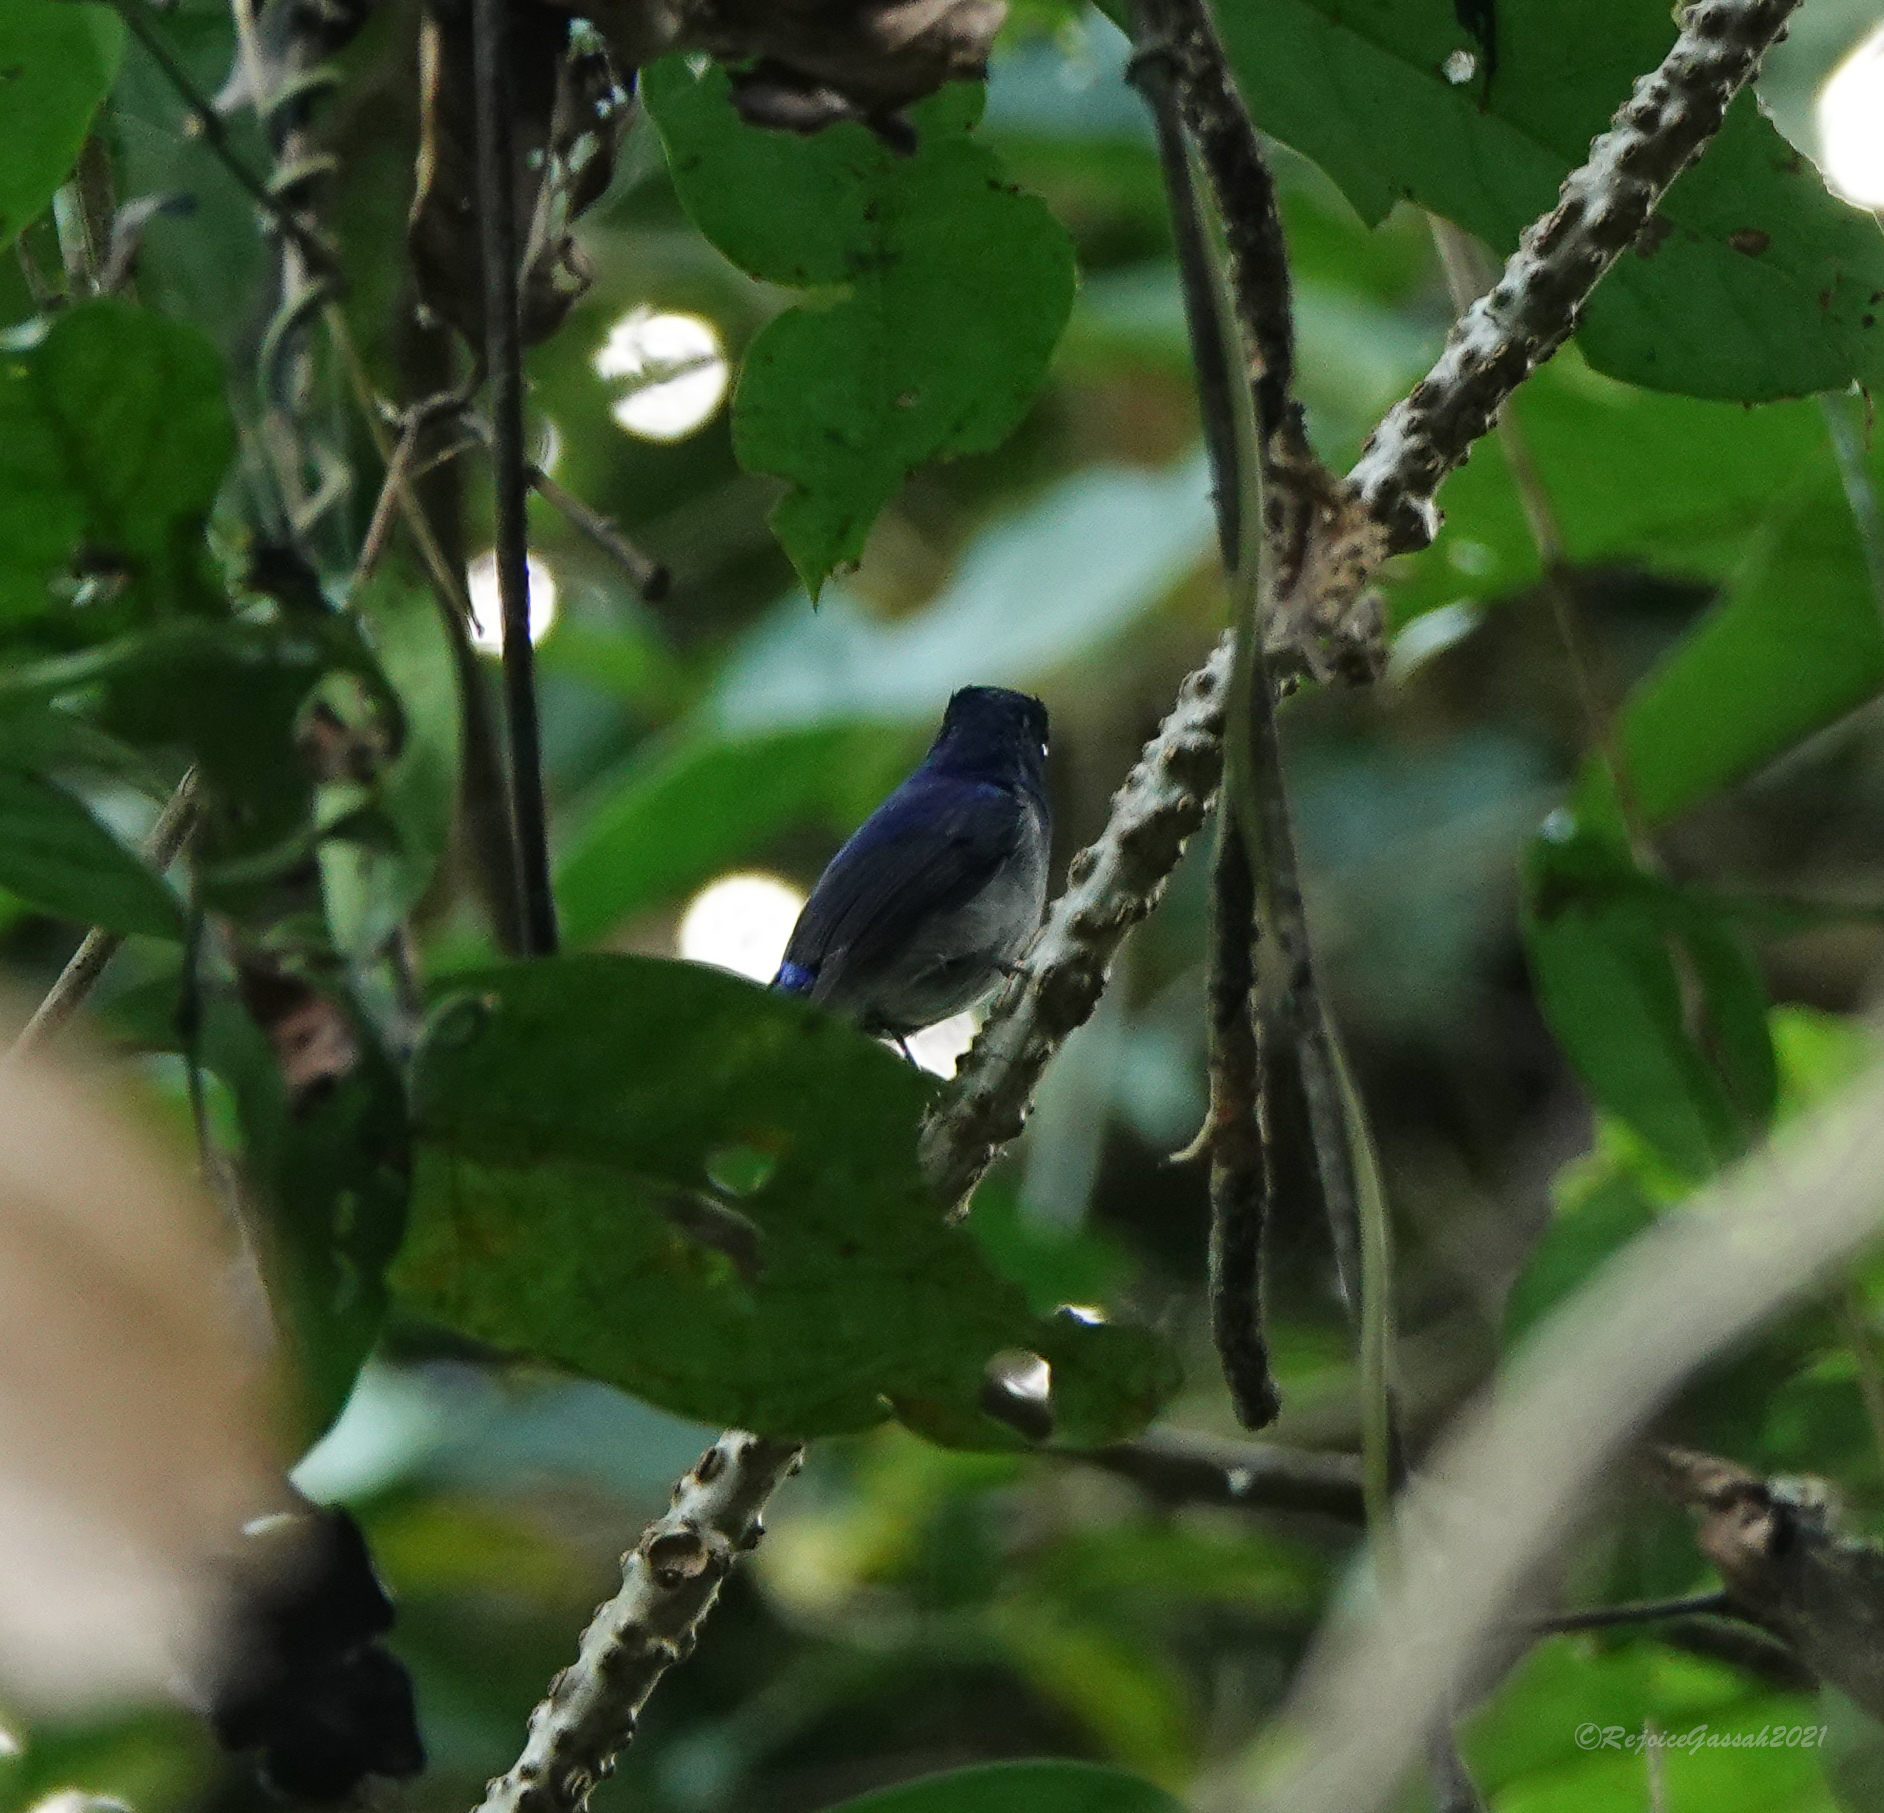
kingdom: Animalia
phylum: Chordata
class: Aves
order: Passeriformes
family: Muscicapidae
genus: Niltava
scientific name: Niltava macgrigoriae
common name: Small niltava
